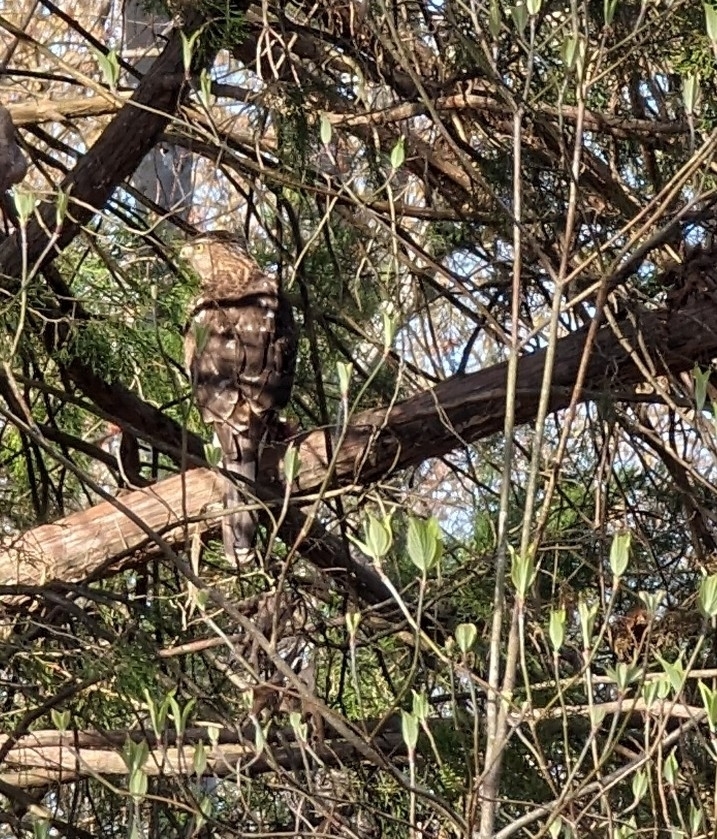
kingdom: Animalia
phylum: Chordata
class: Aves
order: Accipitriformes
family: Accipitridae
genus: Accipiter
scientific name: Accipiter cooperii
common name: Cooper's hawk
